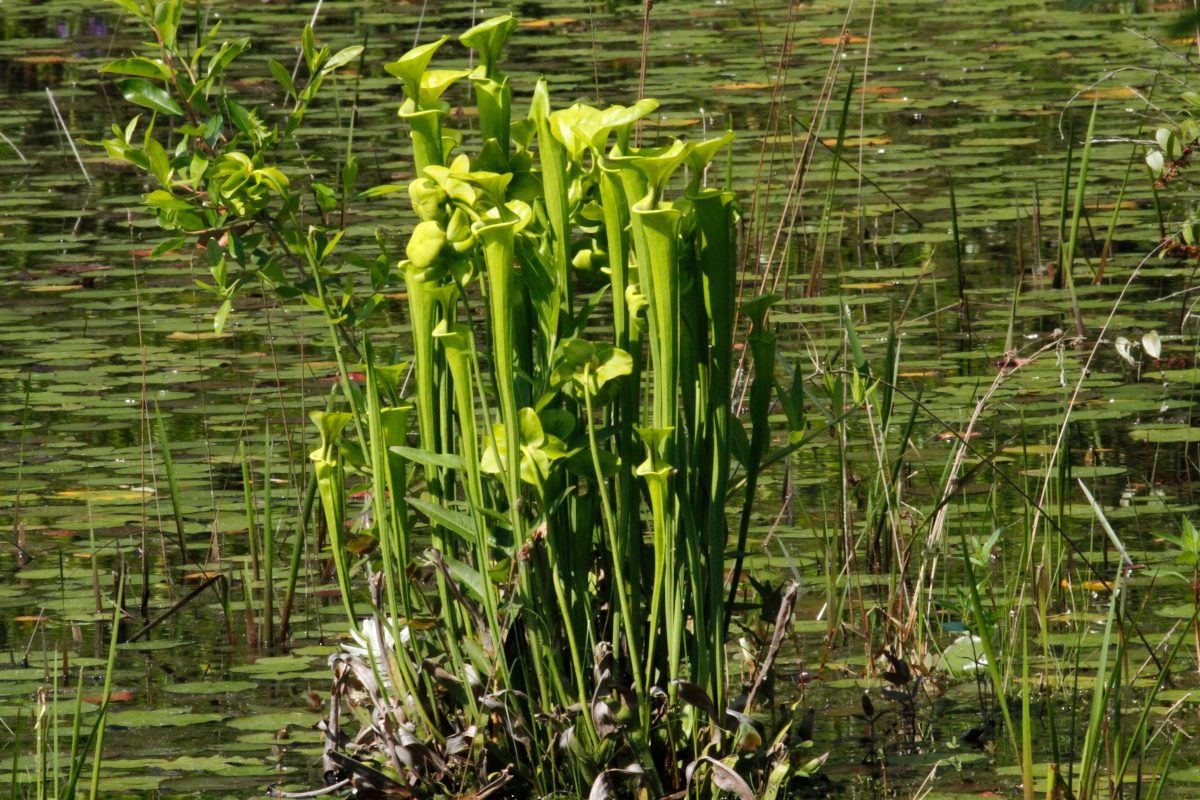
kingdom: Plantae
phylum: Tracheophyta
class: Magnoliopsida
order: Ericales
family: Sarraceniaceae
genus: Sarracenia
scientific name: Sarracenia flava
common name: Trumpets
